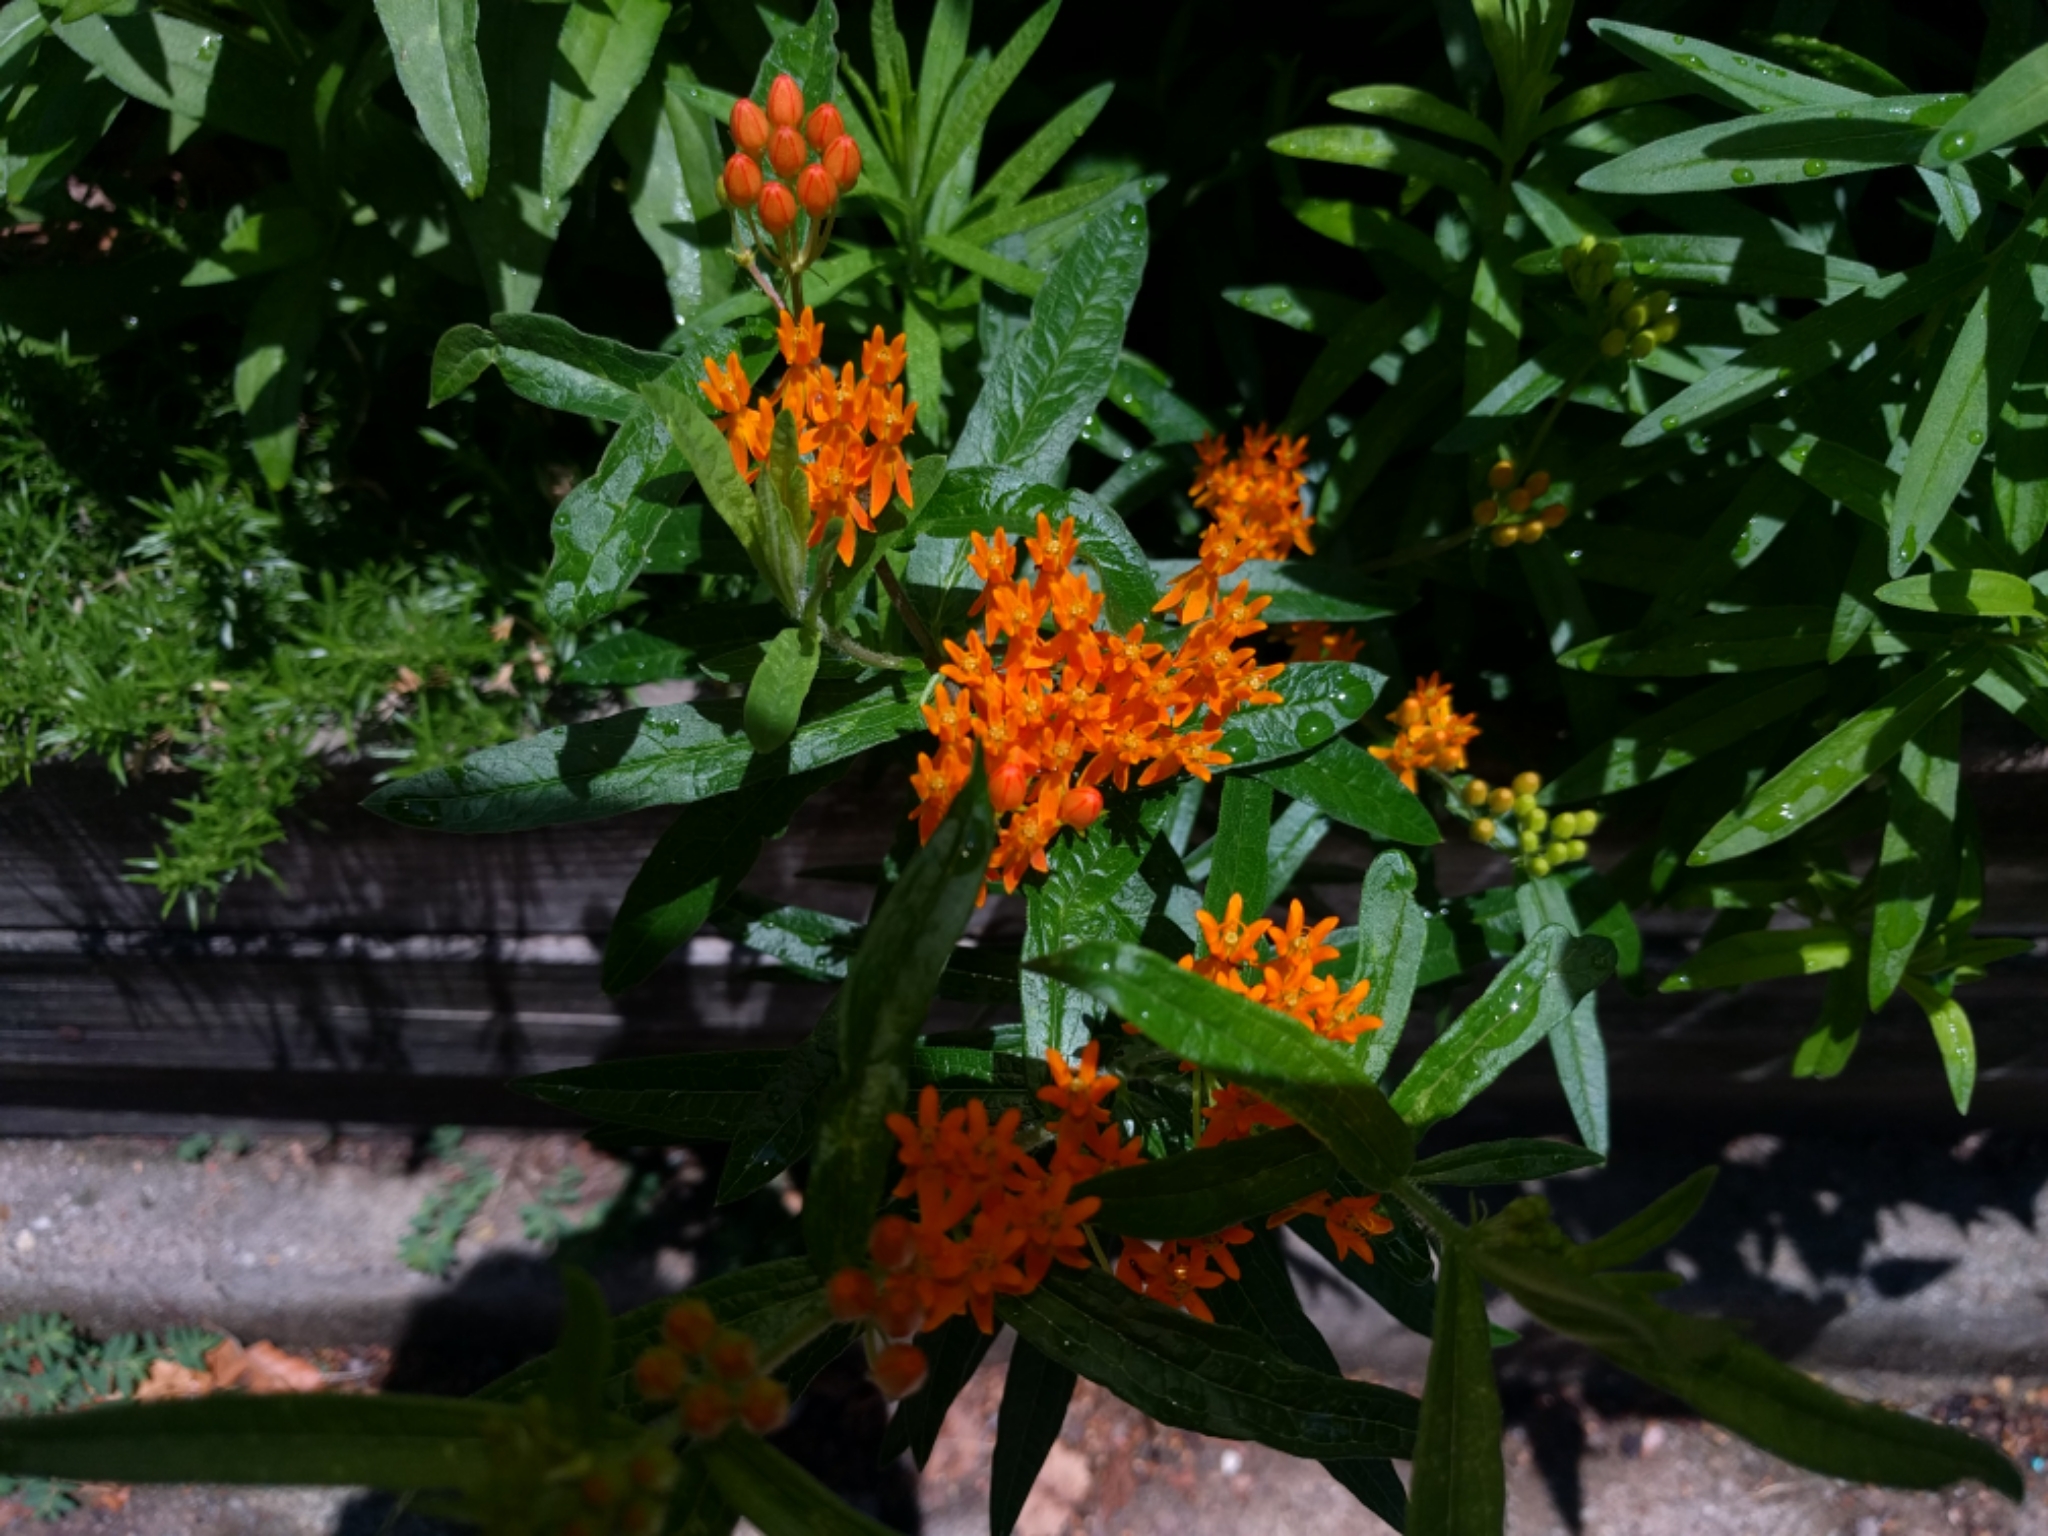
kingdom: Plantae
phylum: Tracheophyta
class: Magnoliopsida
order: Gentianales
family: Apocynaceae
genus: Asclepias
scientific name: Asclepias tuberosa
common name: Butterfly milkweed
